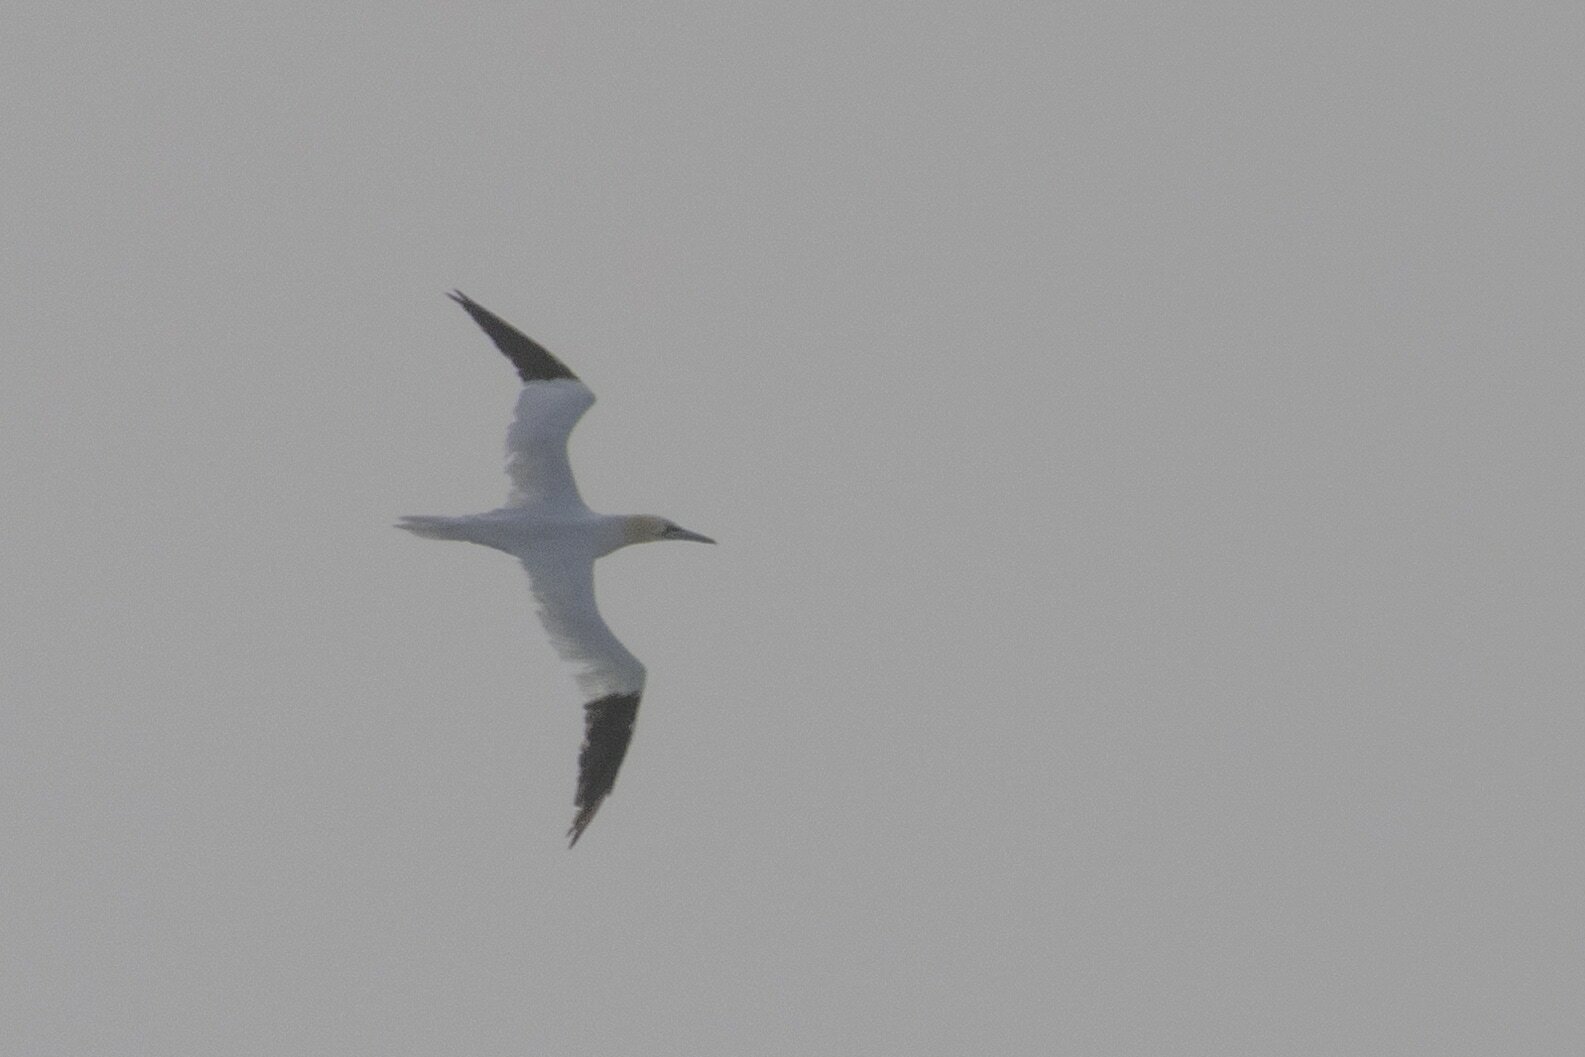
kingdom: Animalia
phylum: Chordata
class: Aves
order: Suliformes
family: Sulidae
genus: Morus
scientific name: Morus bassanus
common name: Northern gannet
